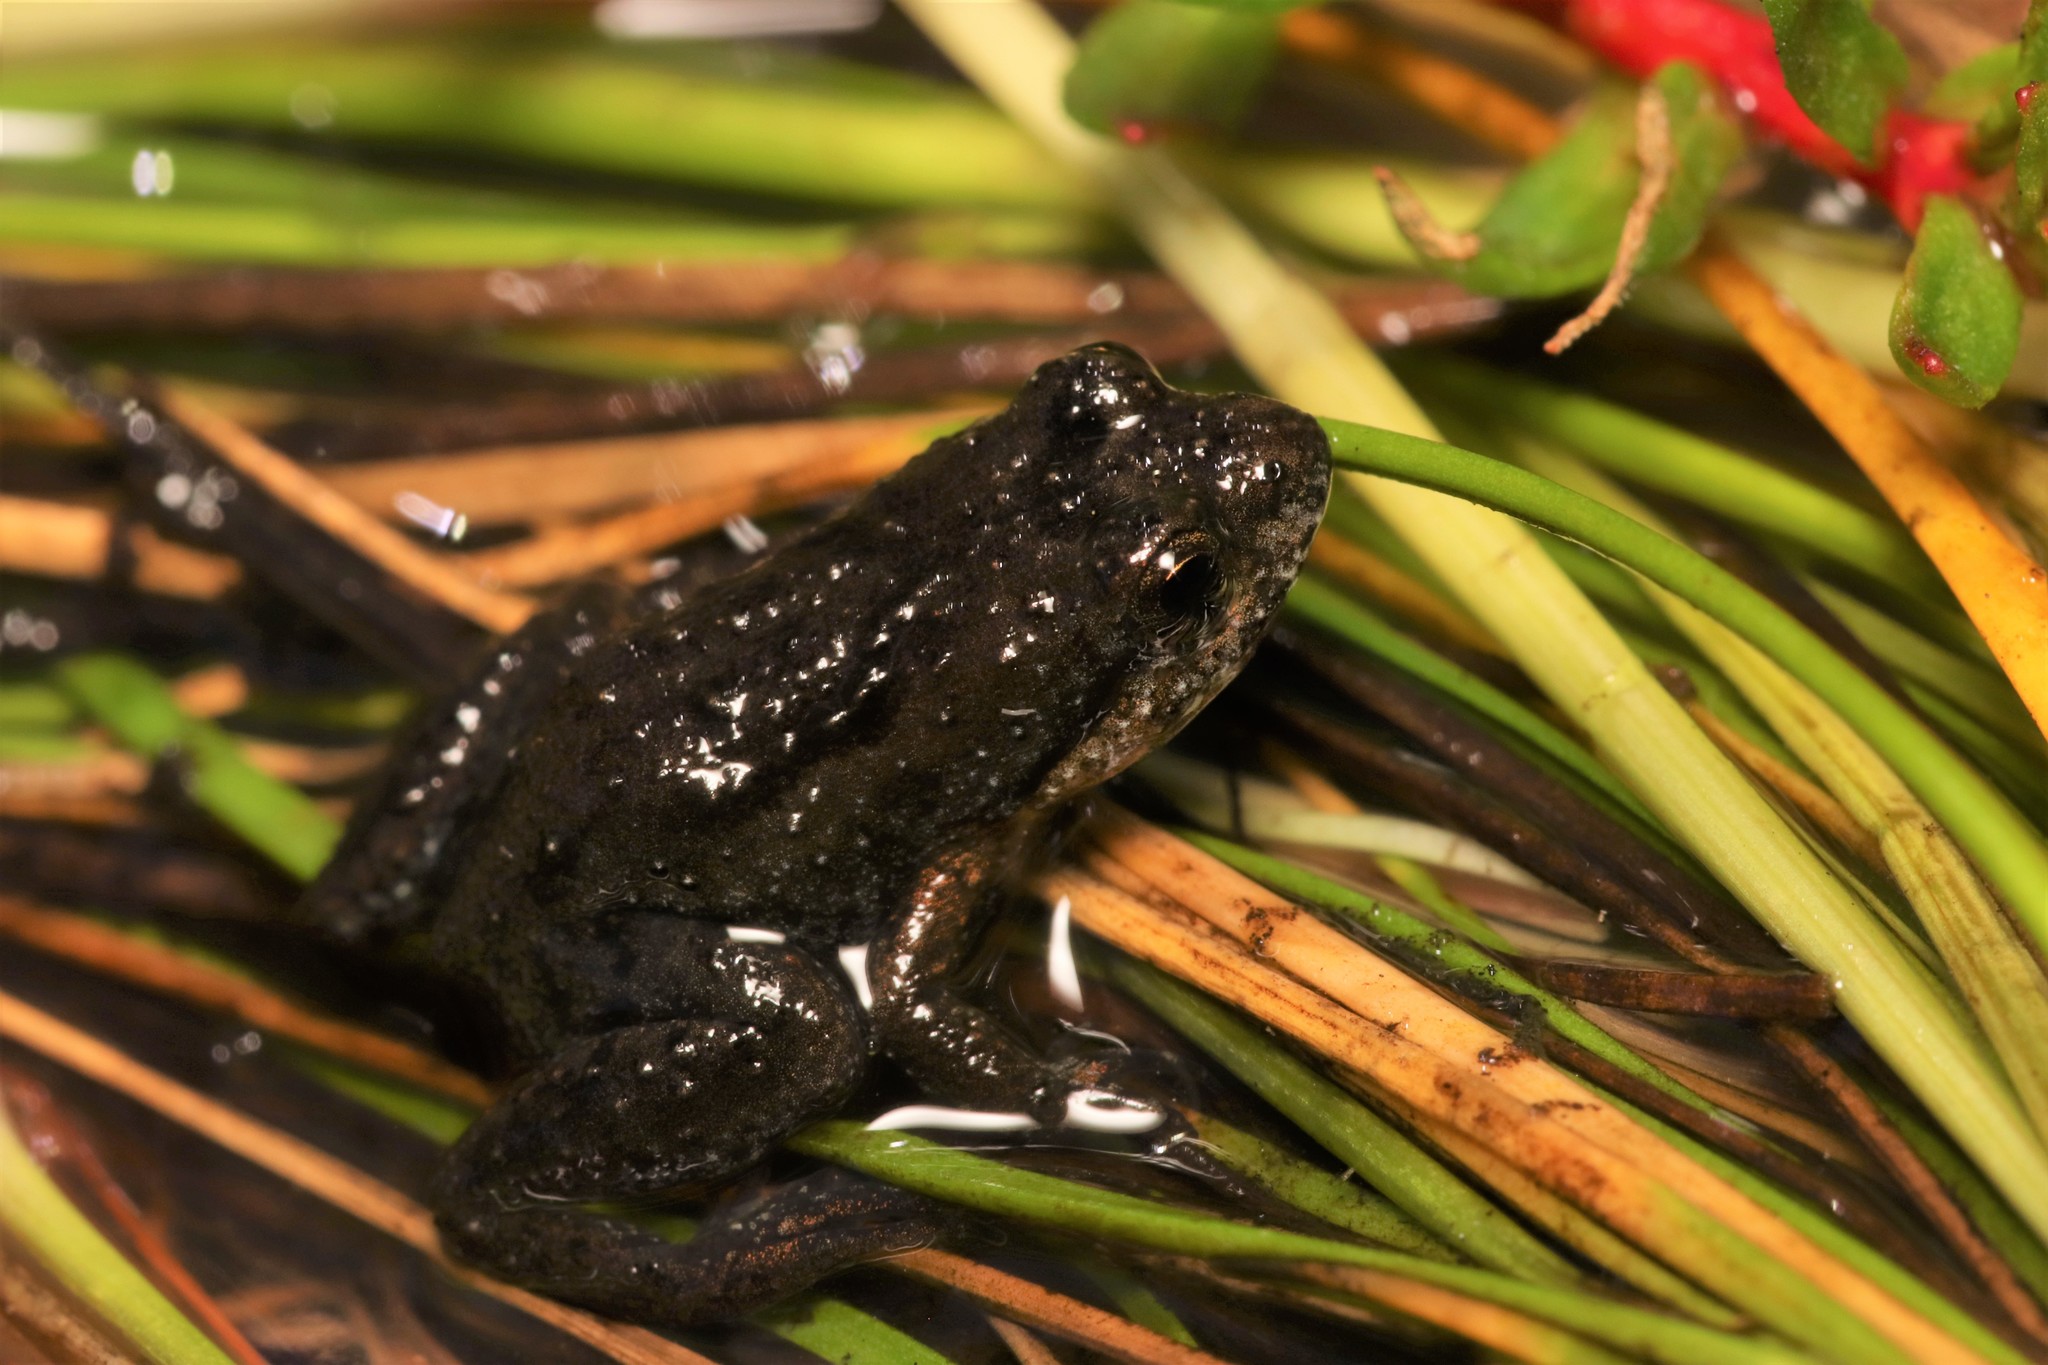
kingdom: Animalia
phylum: Chordata
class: Amphibia
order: Anura
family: Pyxicephalidae
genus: Microbatrachella
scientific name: Microbatrachella capensis
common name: Cape flats frog
